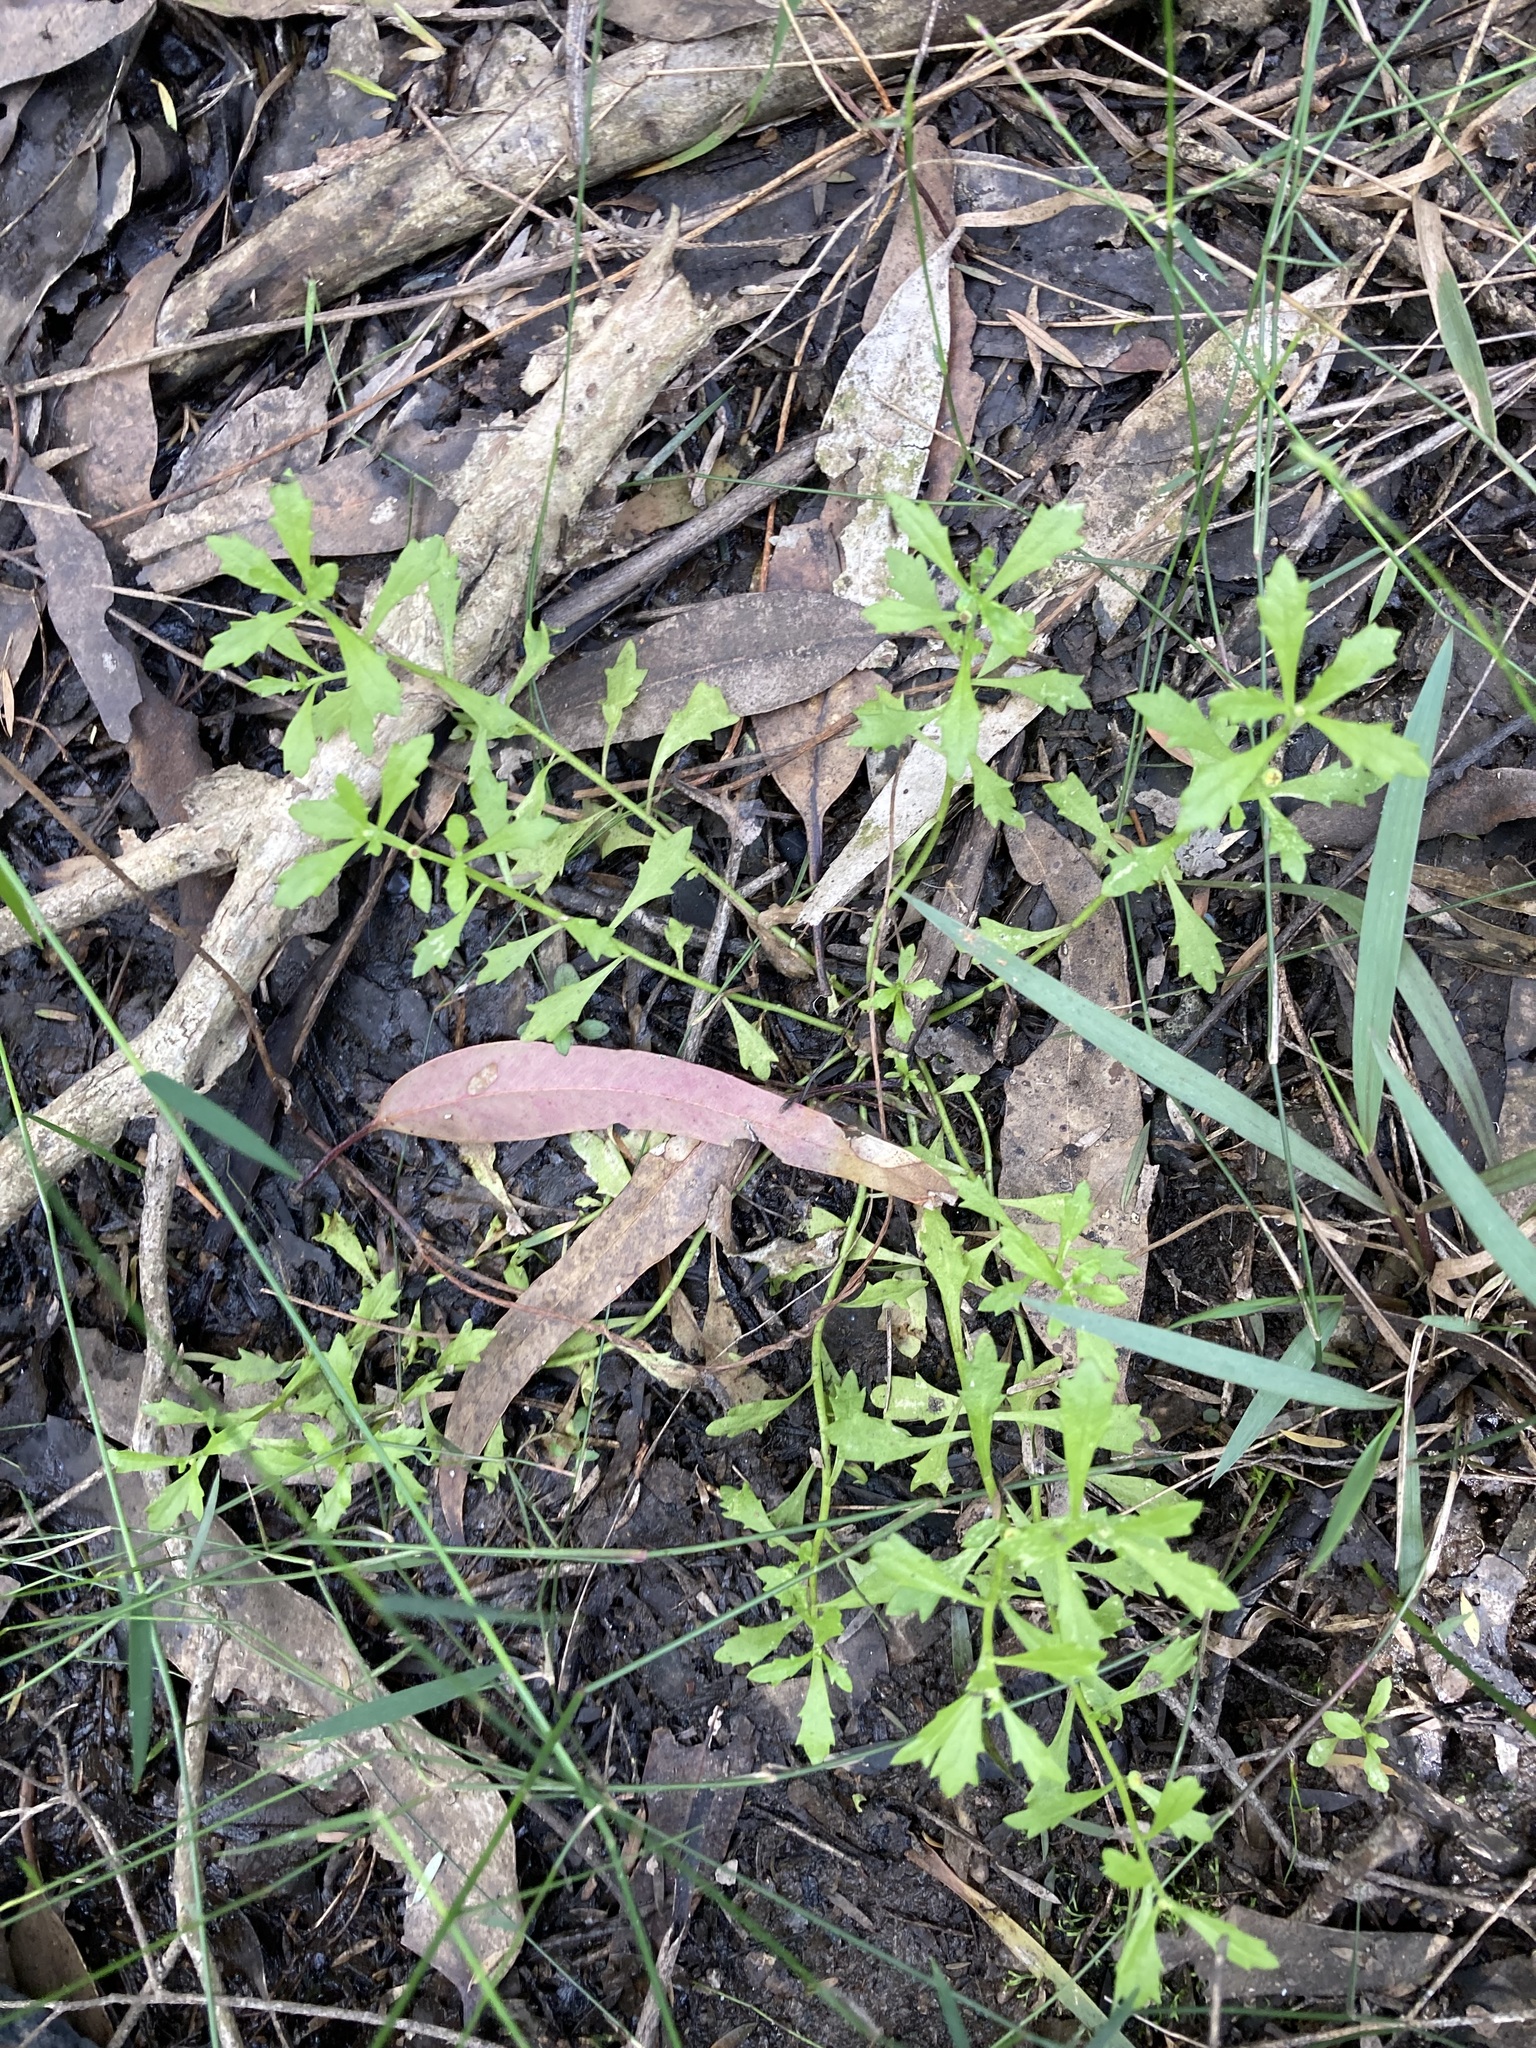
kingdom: Plantae
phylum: Tracheophyta
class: Magnoliopsida
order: Asterales
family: Asteraceae
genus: Centipeda
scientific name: Centipeda minima
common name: Spreading sneezeweed
